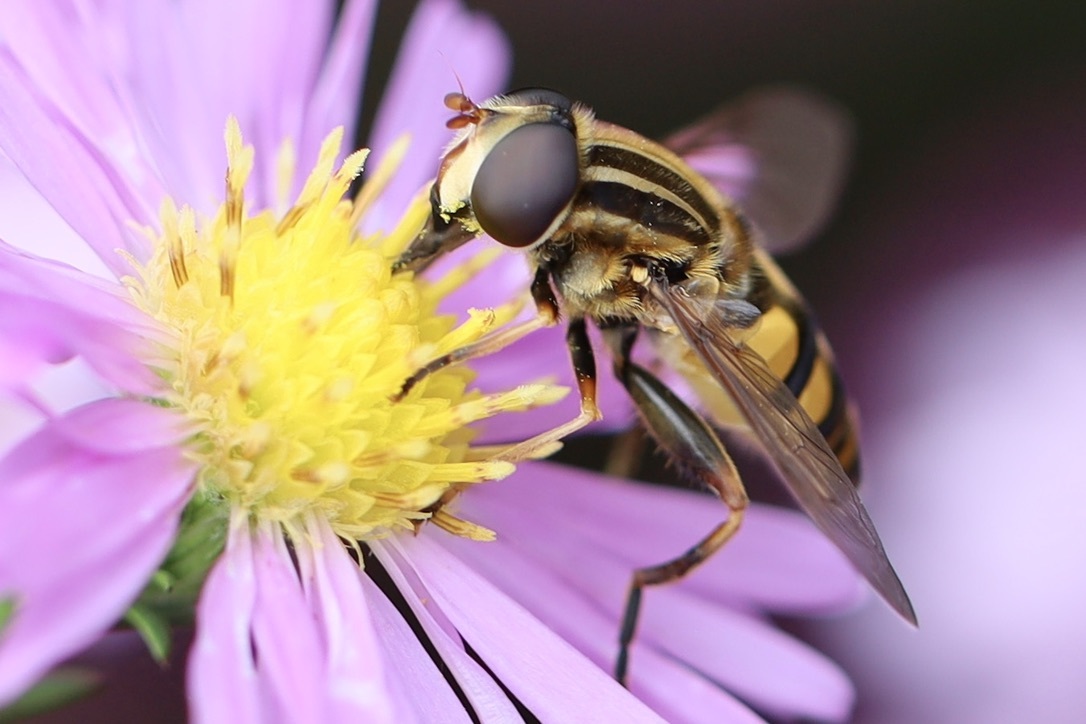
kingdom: Animalia
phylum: Arthropoda
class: Insecta
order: Diptera
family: Syrphidae
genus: Helophilus
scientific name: Helophilus fasciatus
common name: Narrow-headed marsh fly
